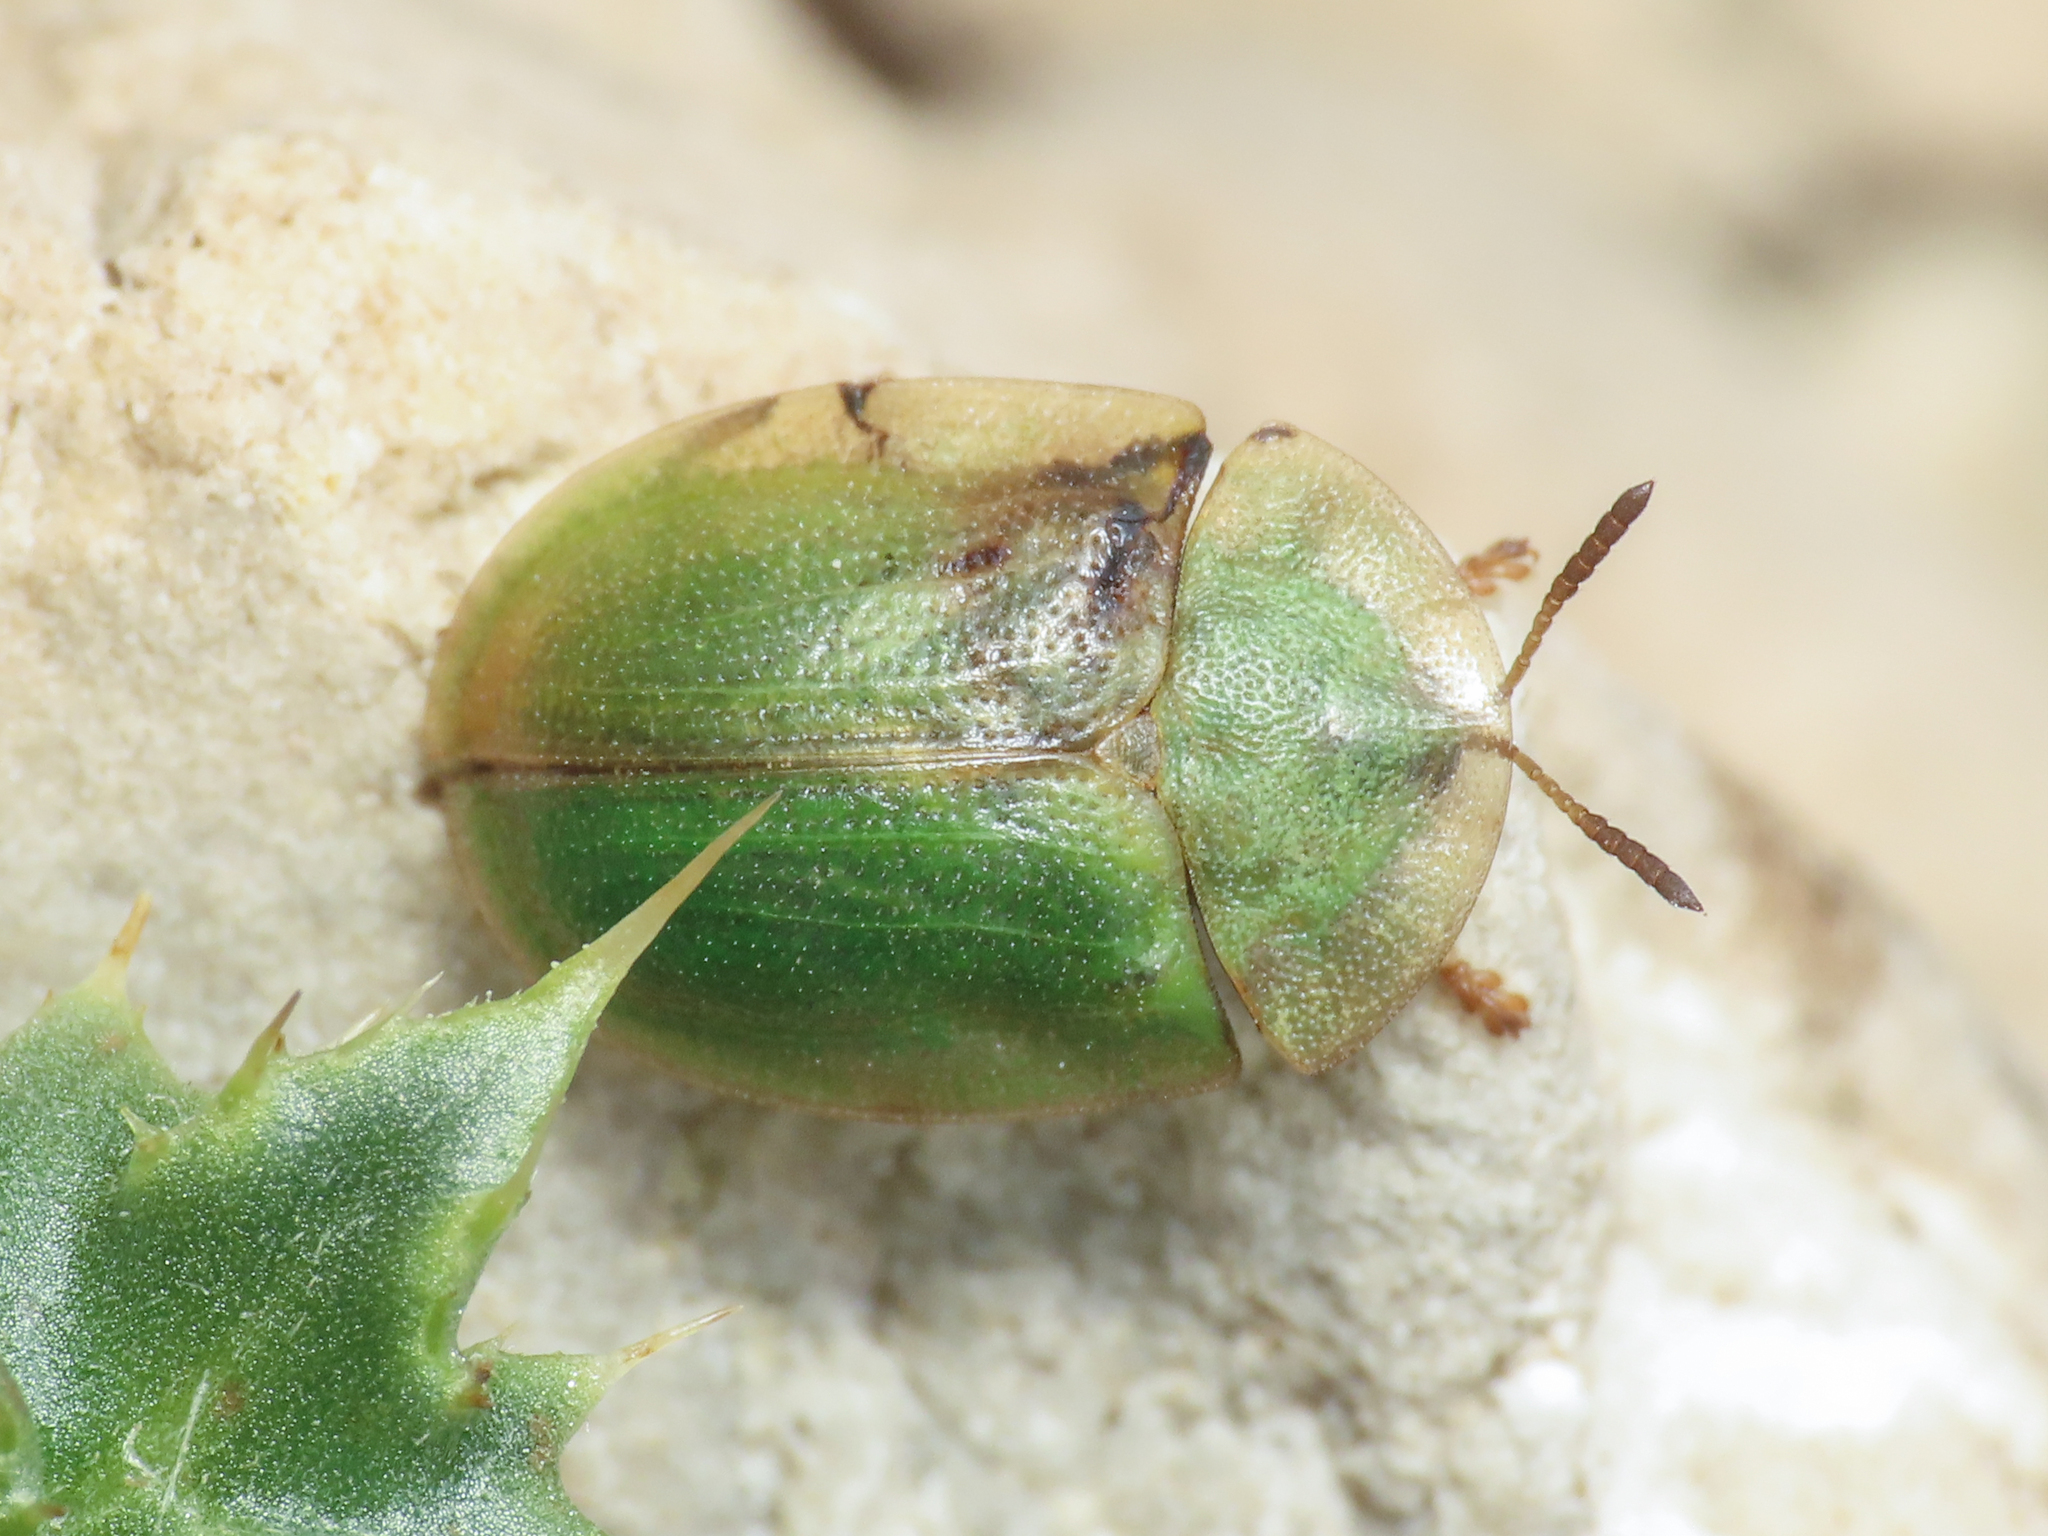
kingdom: Animalia
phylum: Arthropoda
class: Insecta
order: Coleoptera
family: Chrysomelidae
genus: Cassida
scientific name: Cassida alpina
